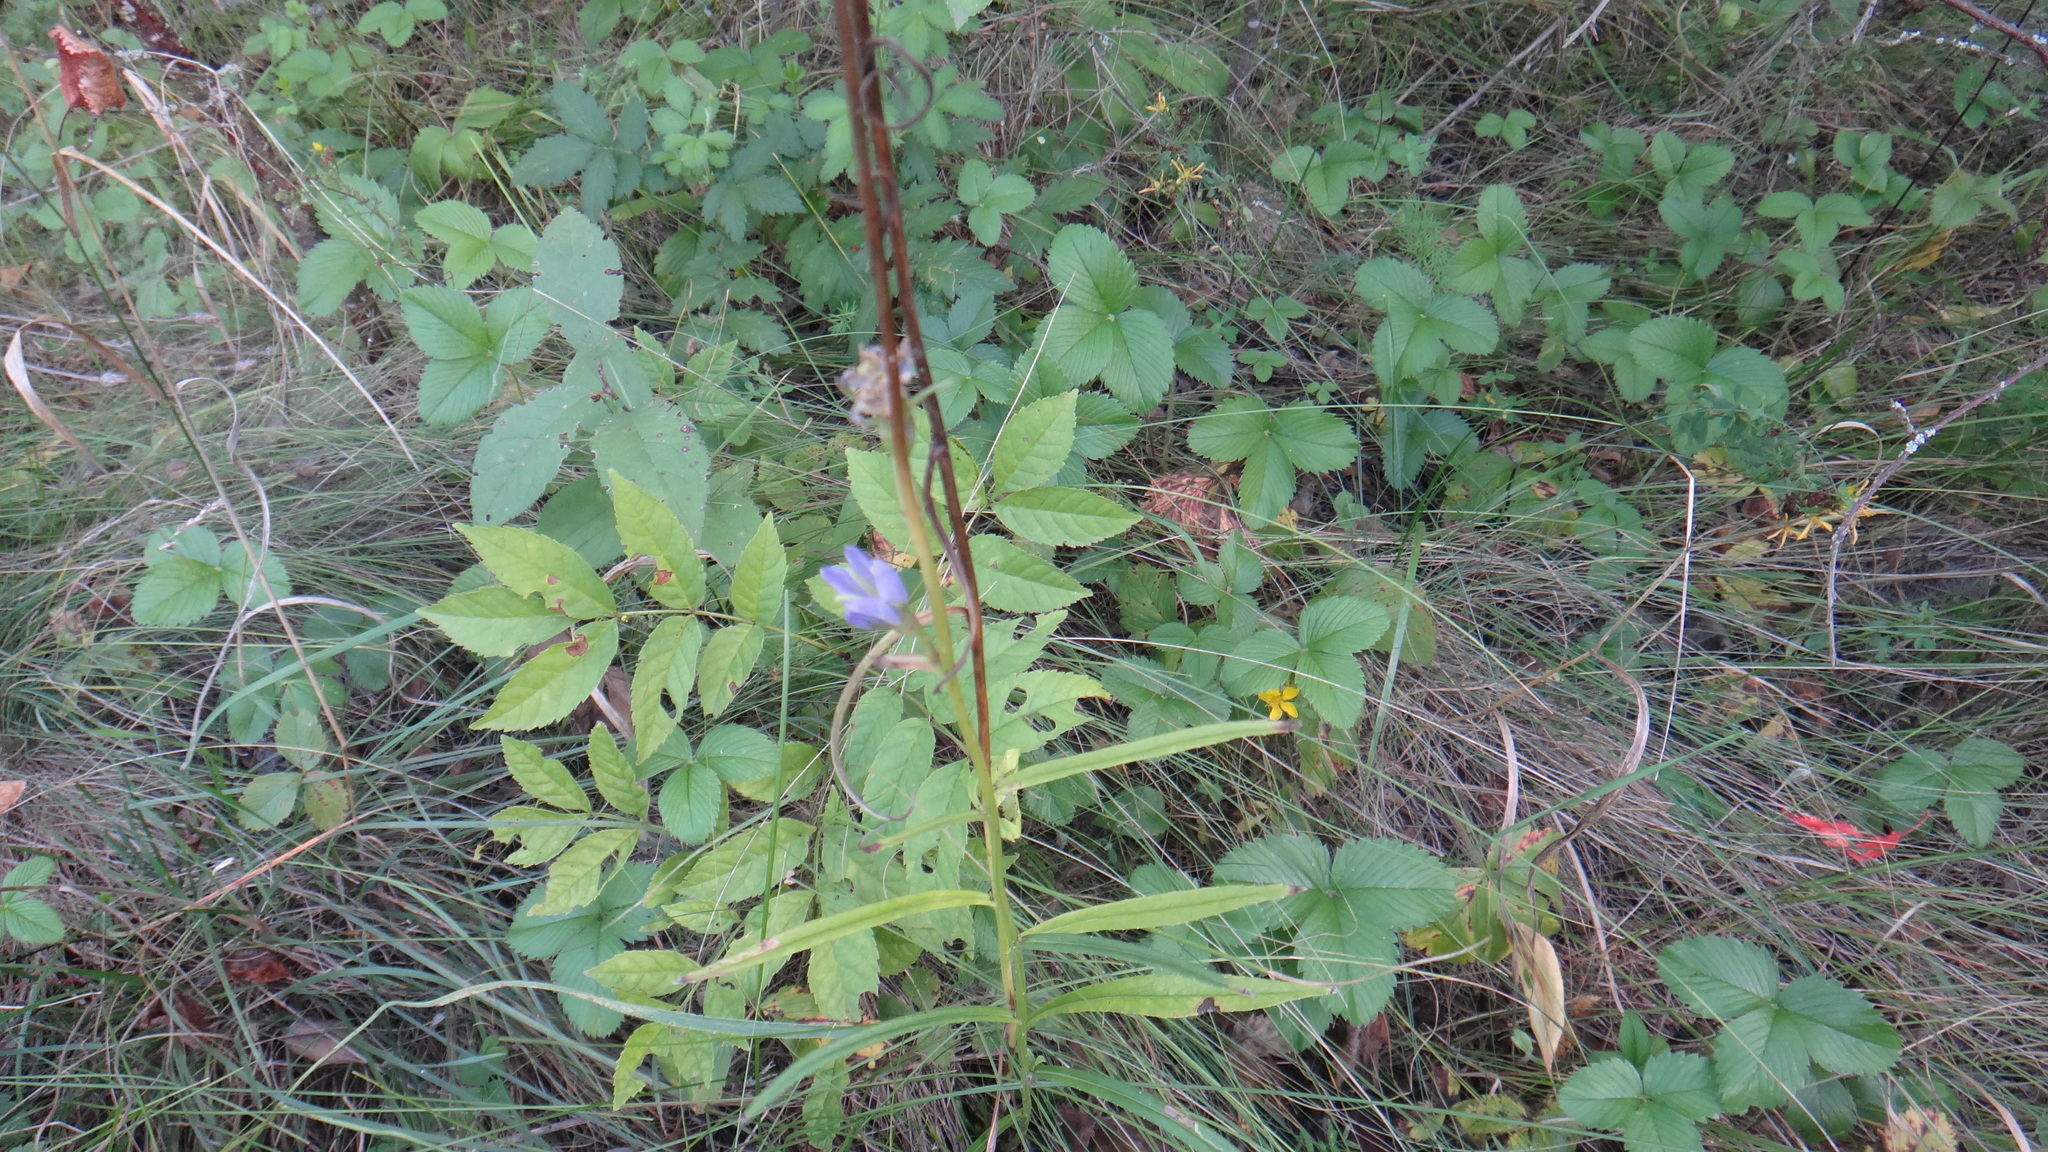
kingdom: Plantae
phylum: Tracheophyta
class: Magnoliopsida
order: Asterales
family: Campanulaceae
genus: Campanula
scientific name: Campanula persicifolia
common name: Peach-leaved bellflower
